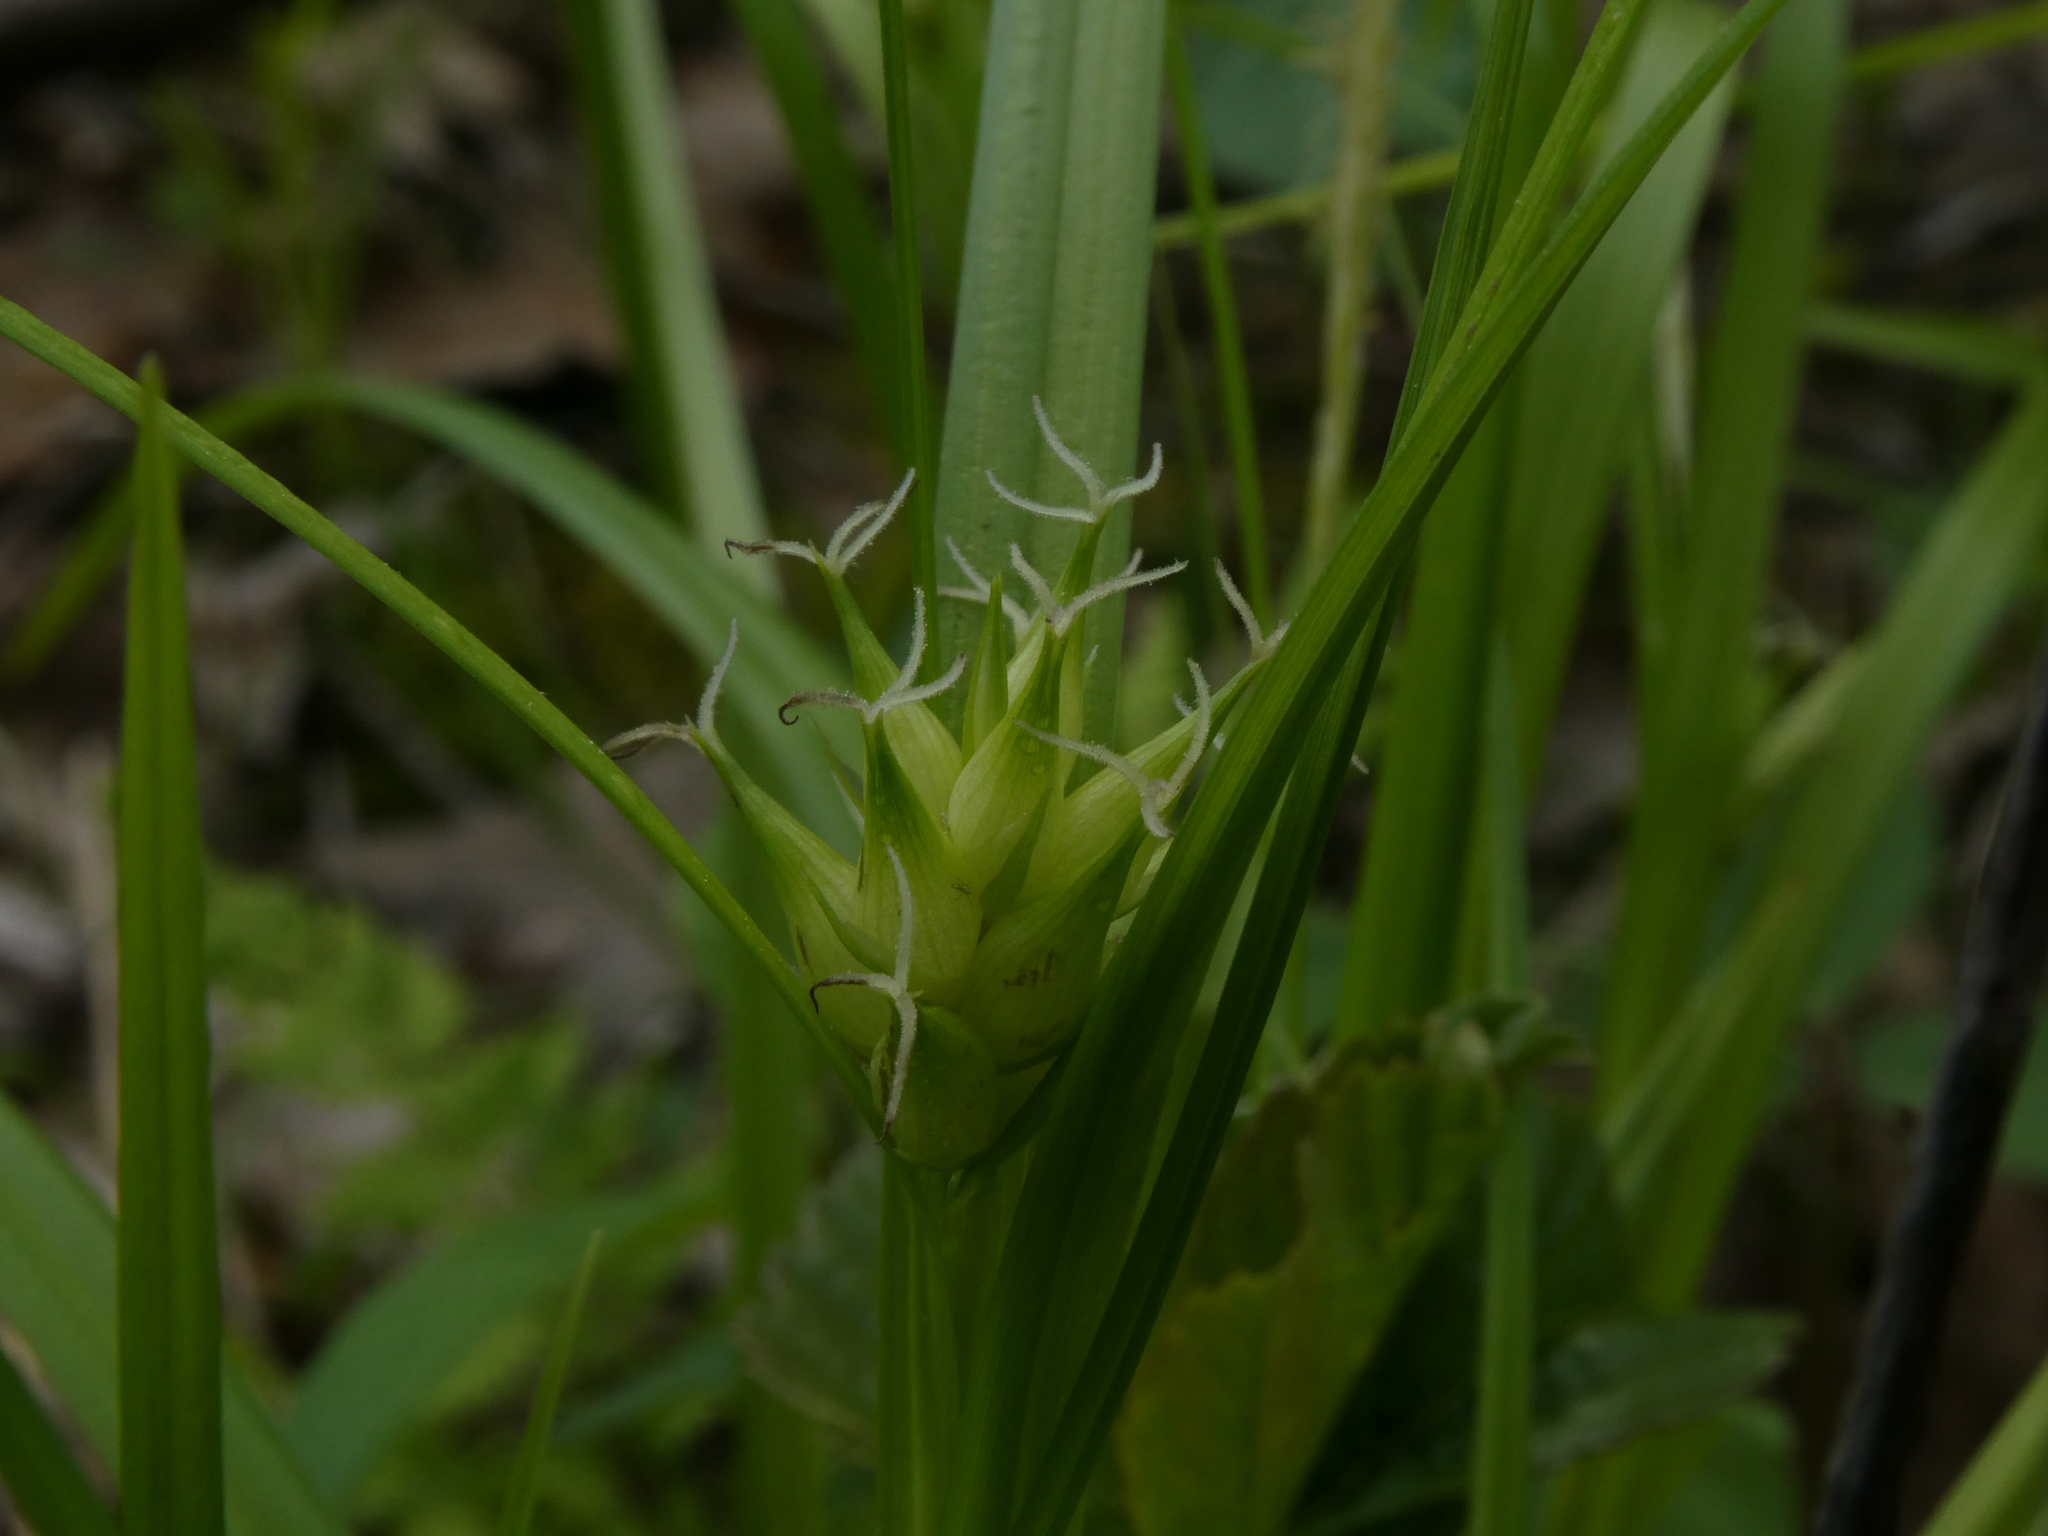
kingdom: Plantae
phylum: Tracheophyta
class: Liliopsida
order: Poales
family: Cyperaceae
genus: Carex
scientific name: Carex intumescens
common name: Greater bladder sedge
